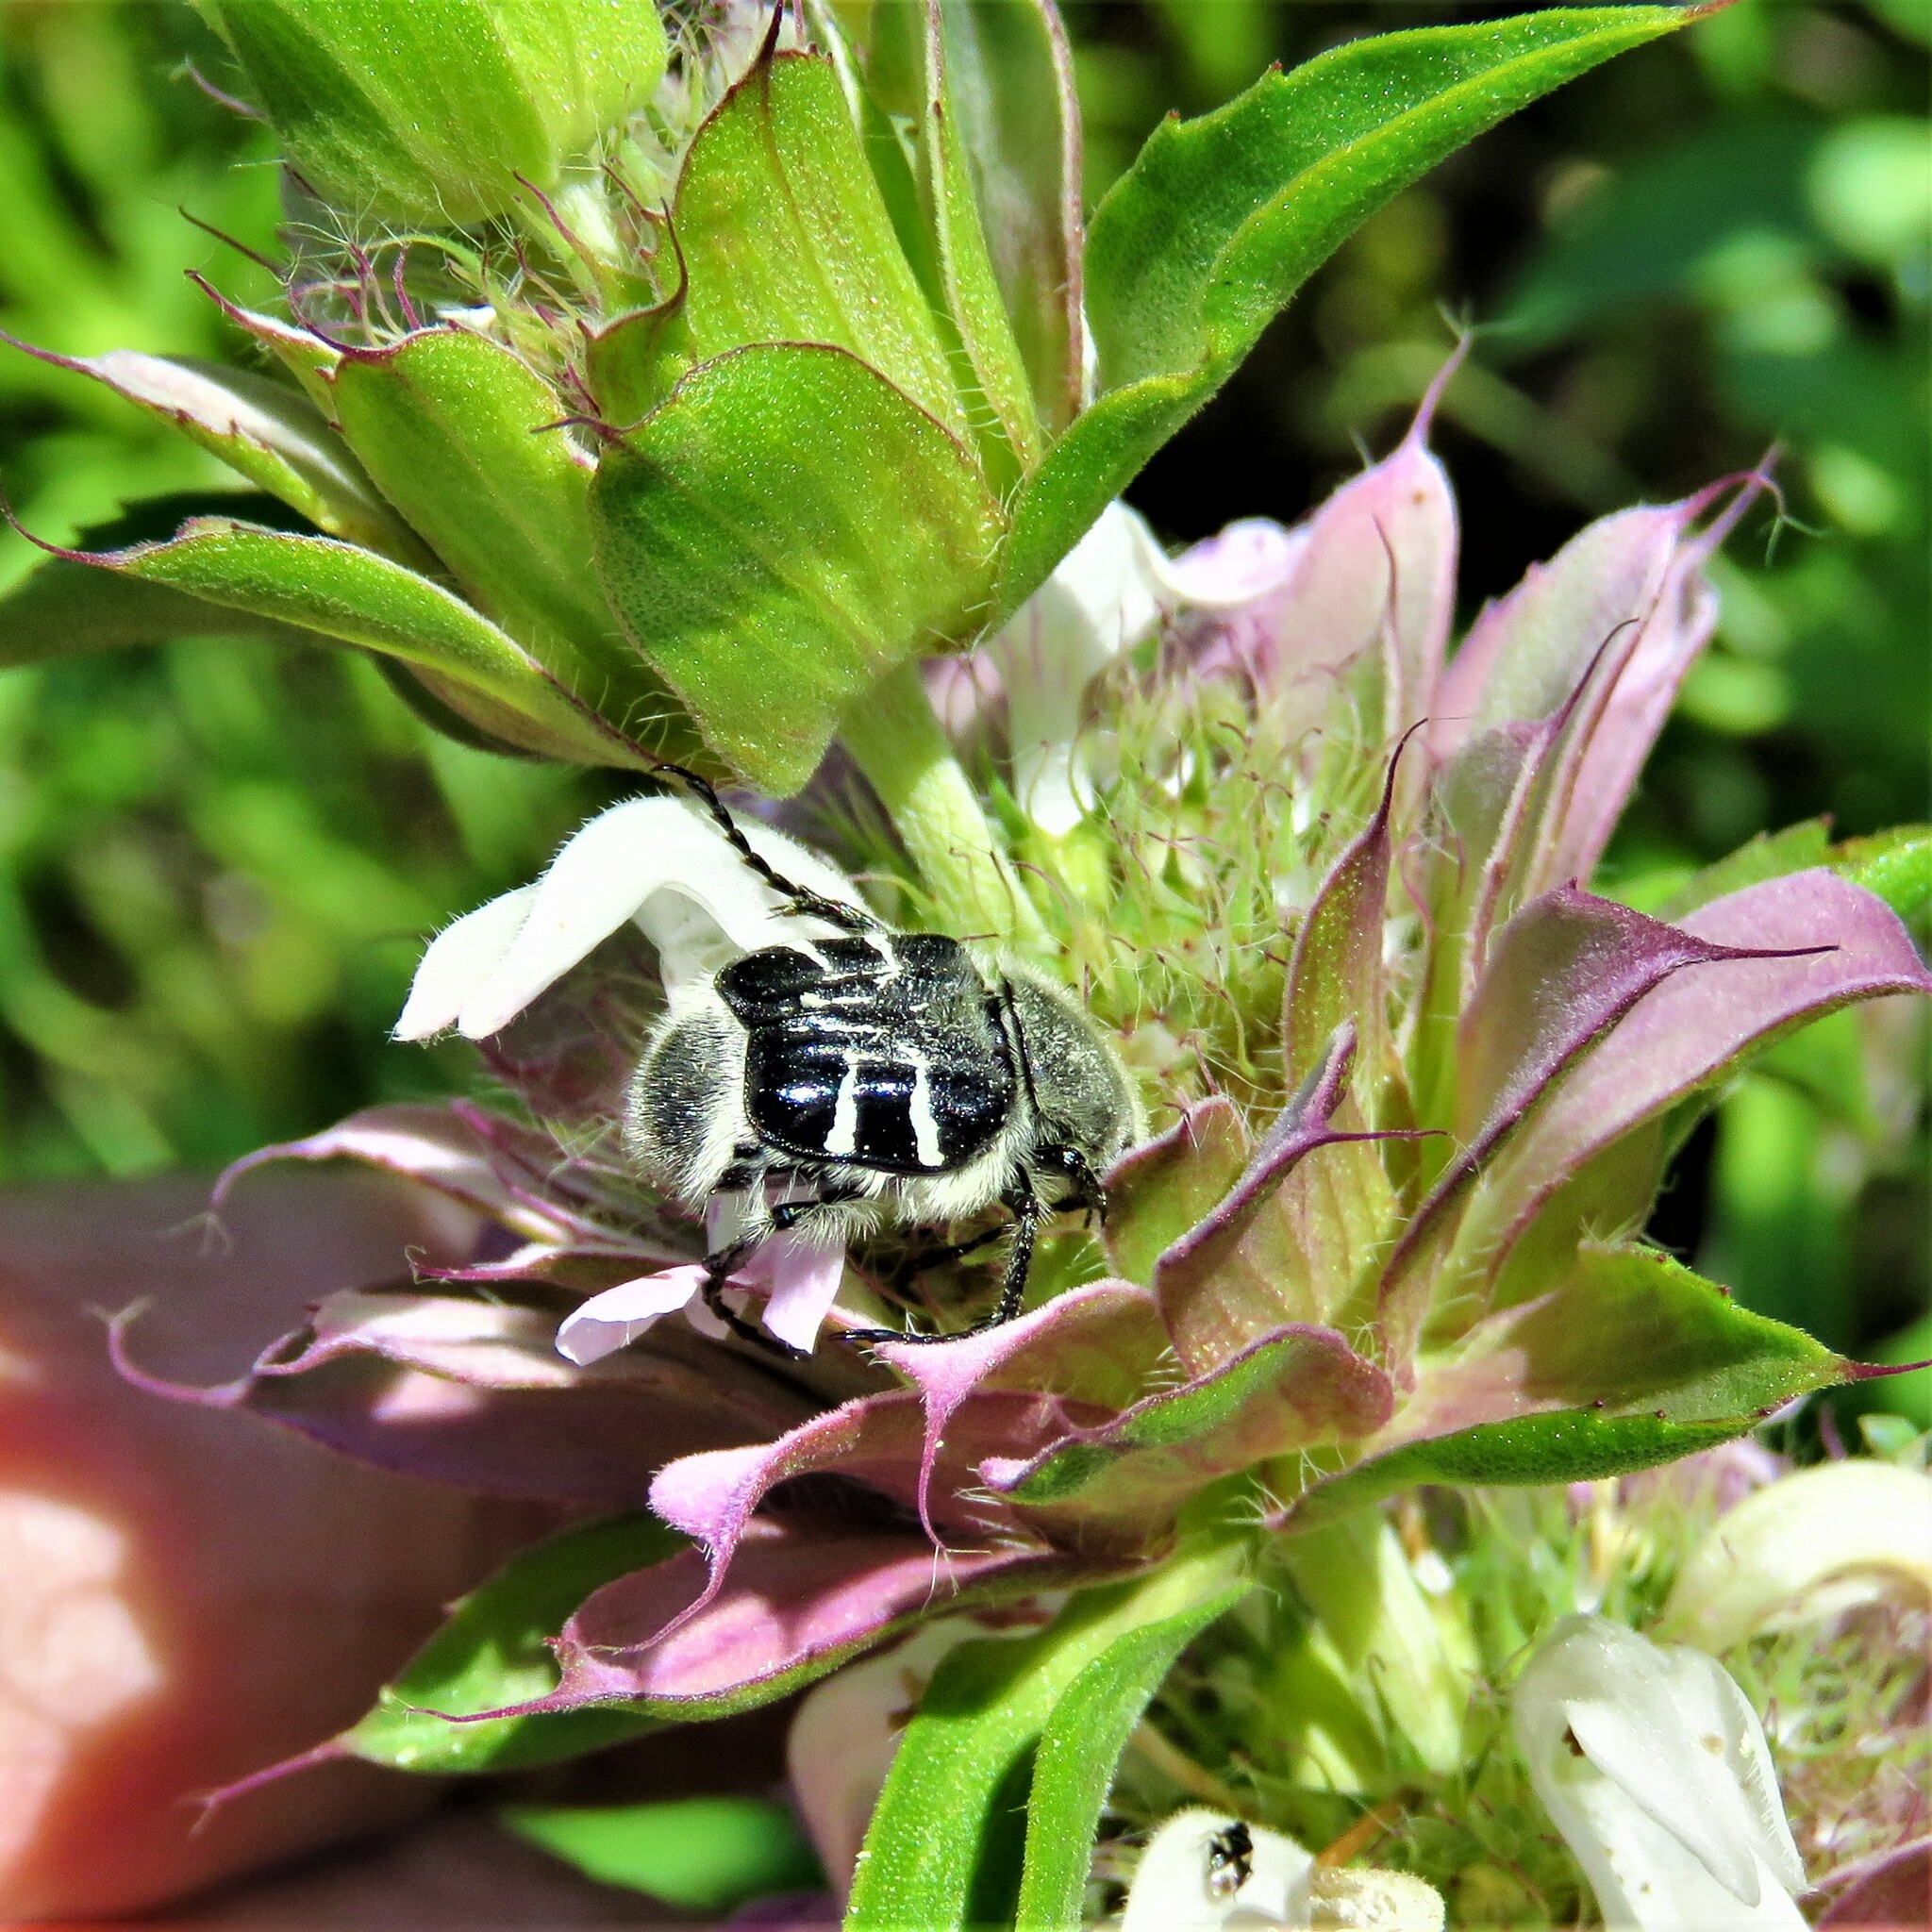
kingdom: Animalia
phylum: Arthropoda
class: Insecta
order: Coleoptera
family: Scarabaeidae
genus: Trichiotinus
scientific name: Trichiotinus texanus
